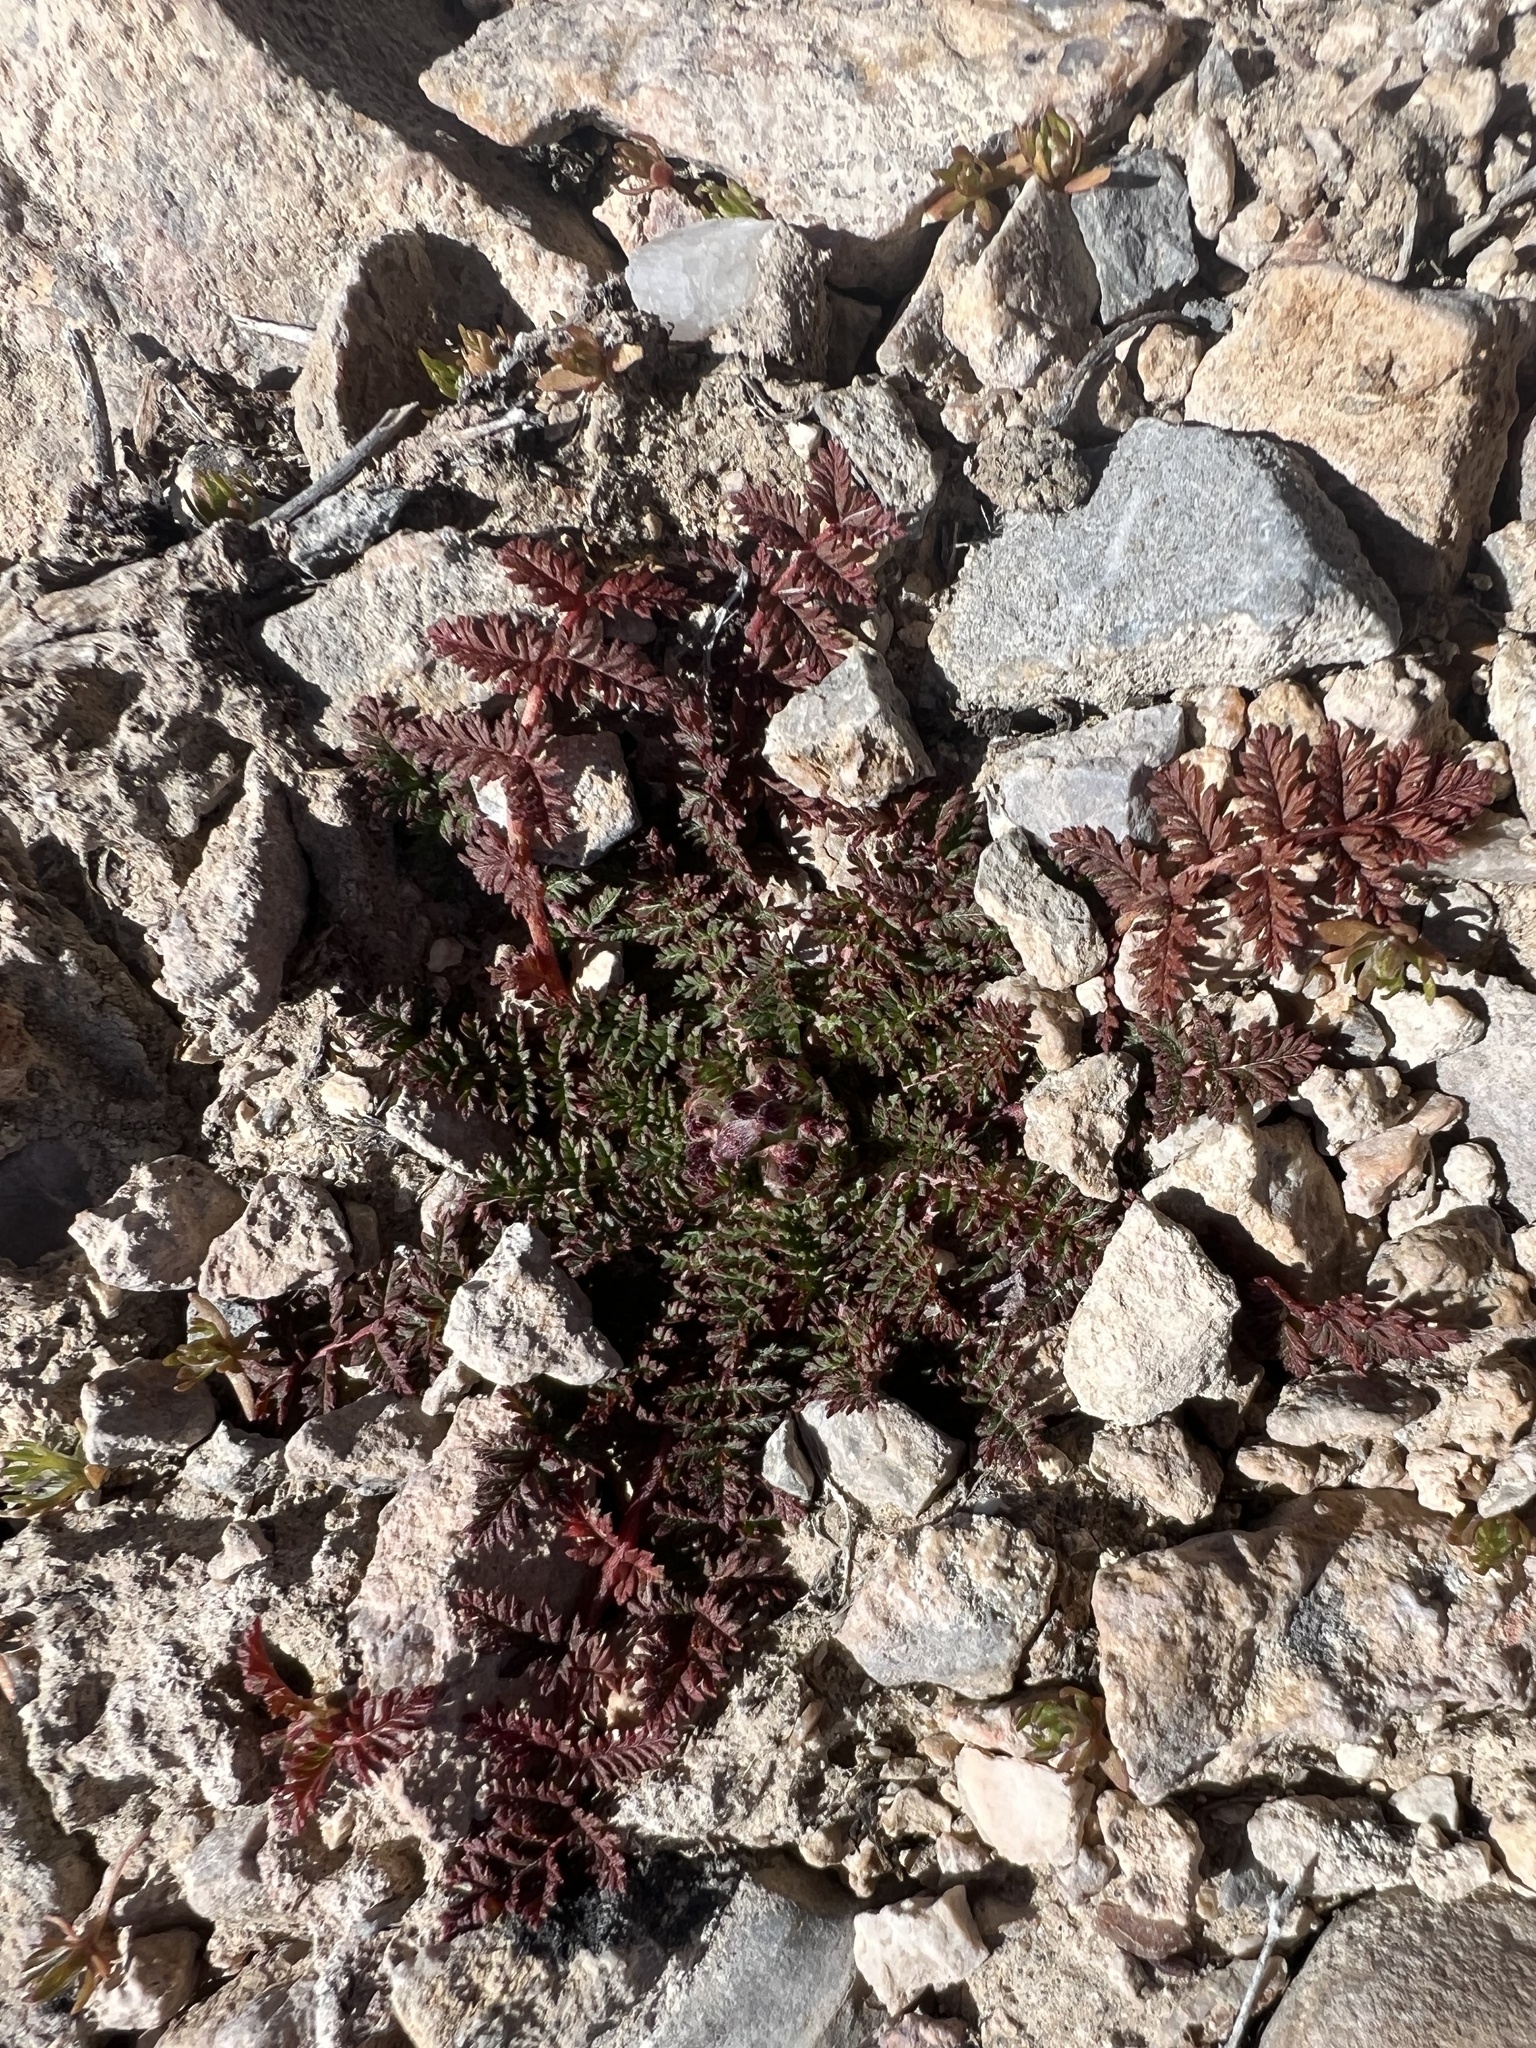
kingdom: Plantae
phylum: Tracheophyta
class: Magnoliopsida
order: Geraniales
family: Geraniaceae
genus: Erodium
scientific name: Erodium cicutarium
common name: Common stork's-bill
